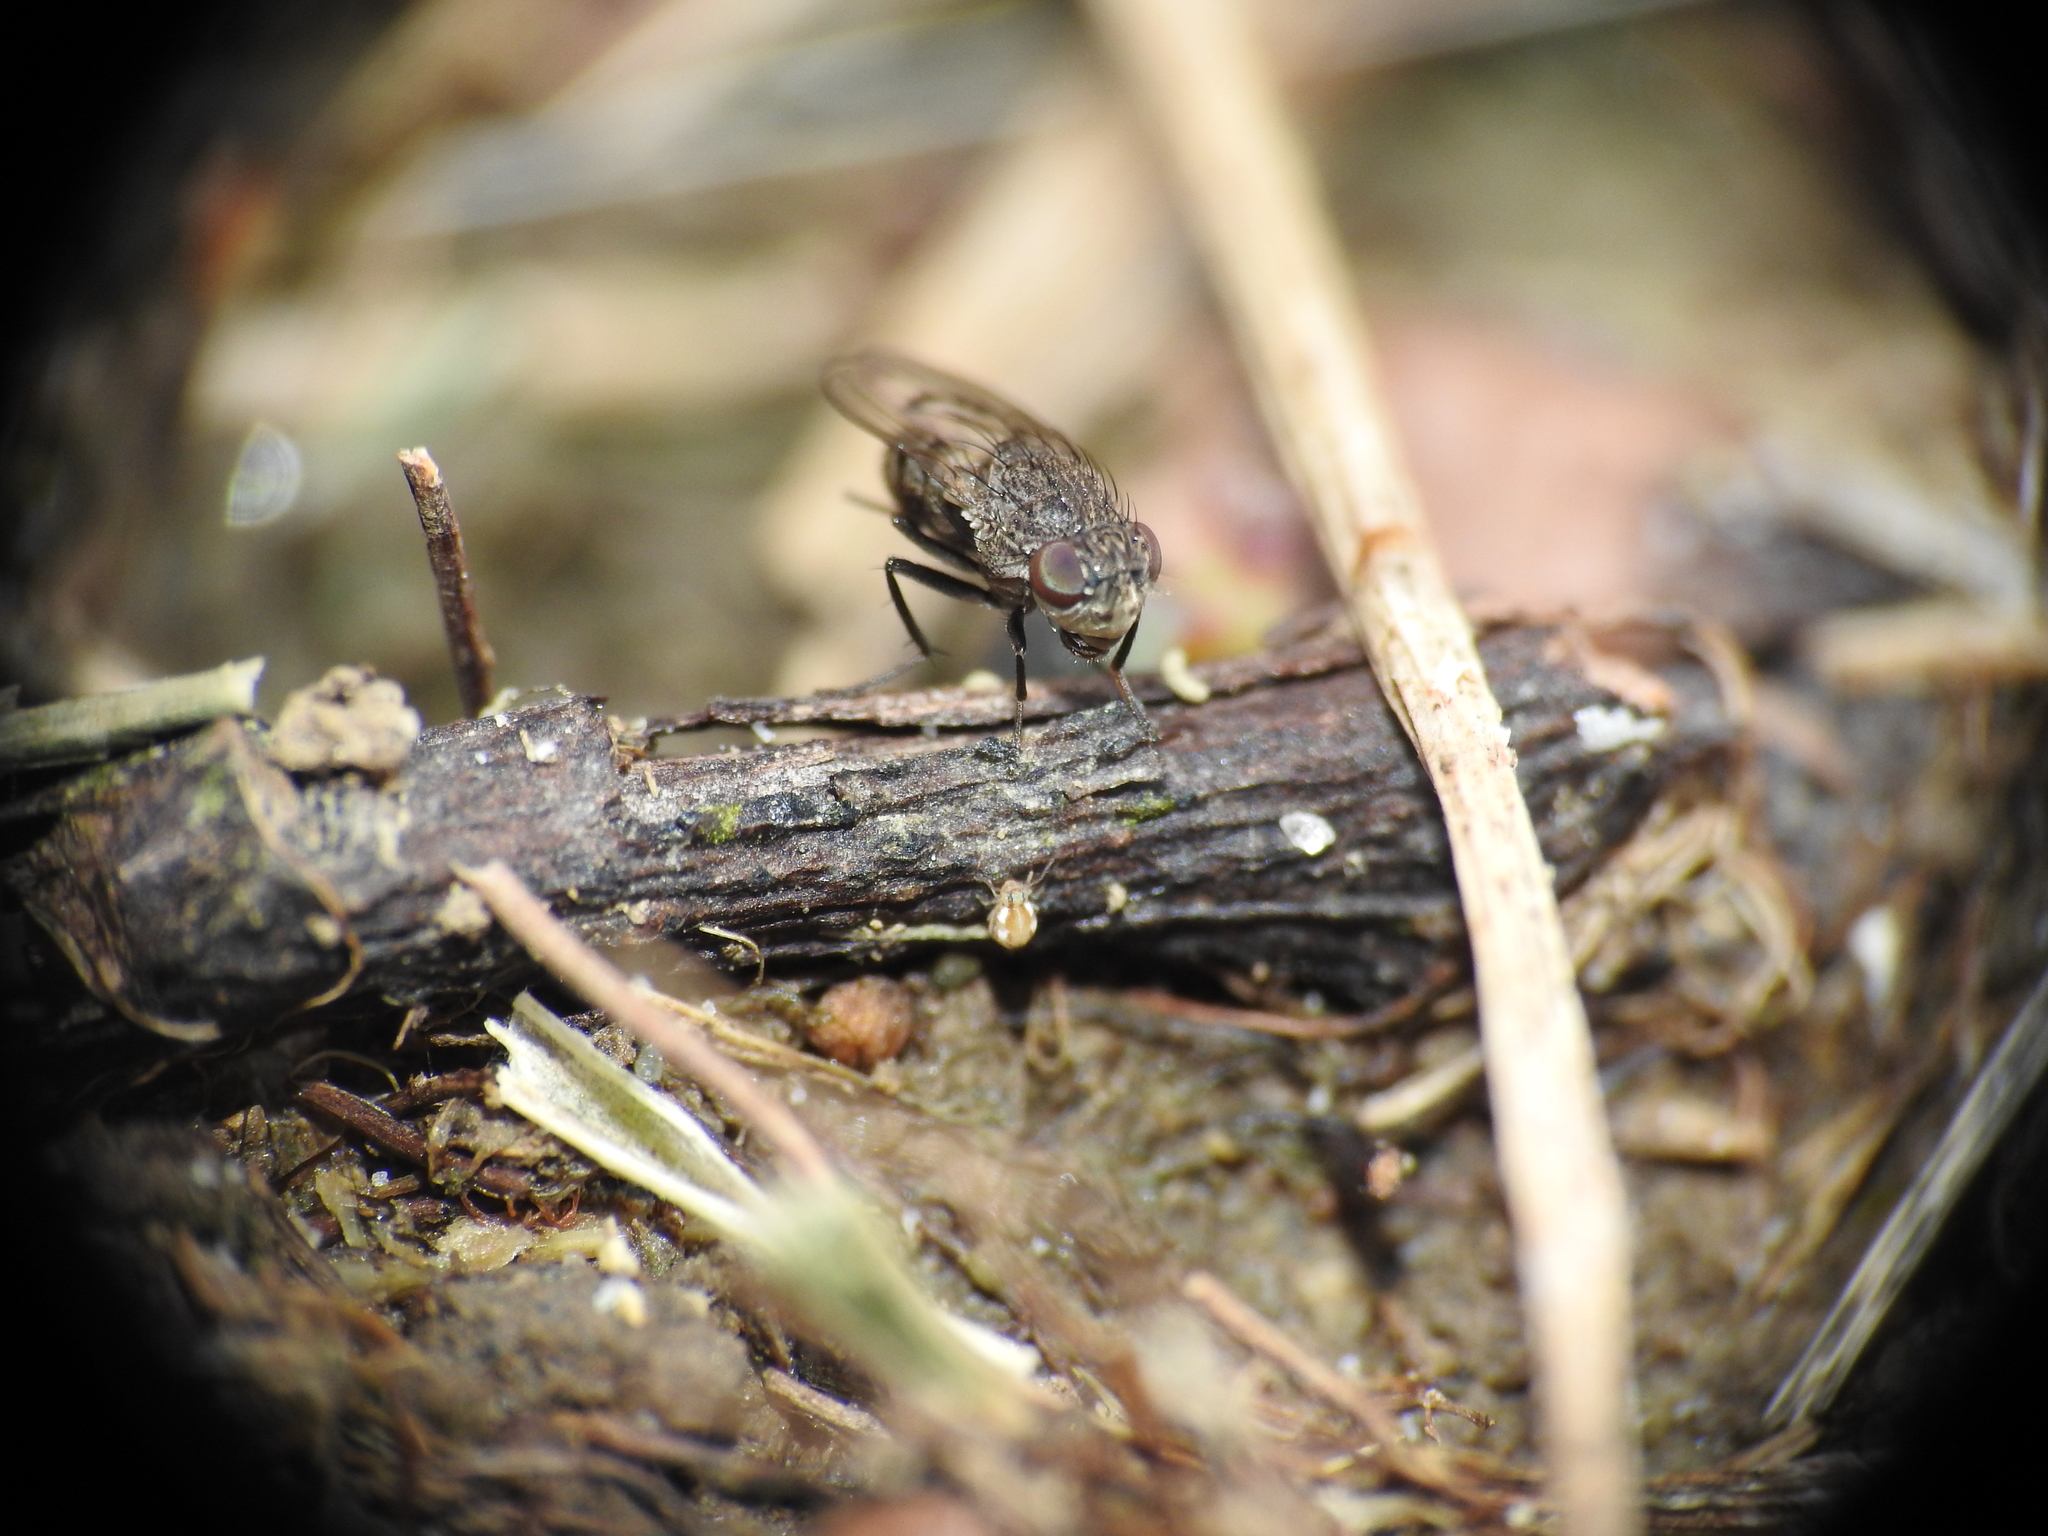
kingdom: Animalia
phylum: Arthropoda
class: Insecta
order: Diptera
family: Ephydridae
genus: Paralimna
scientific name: Paralimna punctipennis
